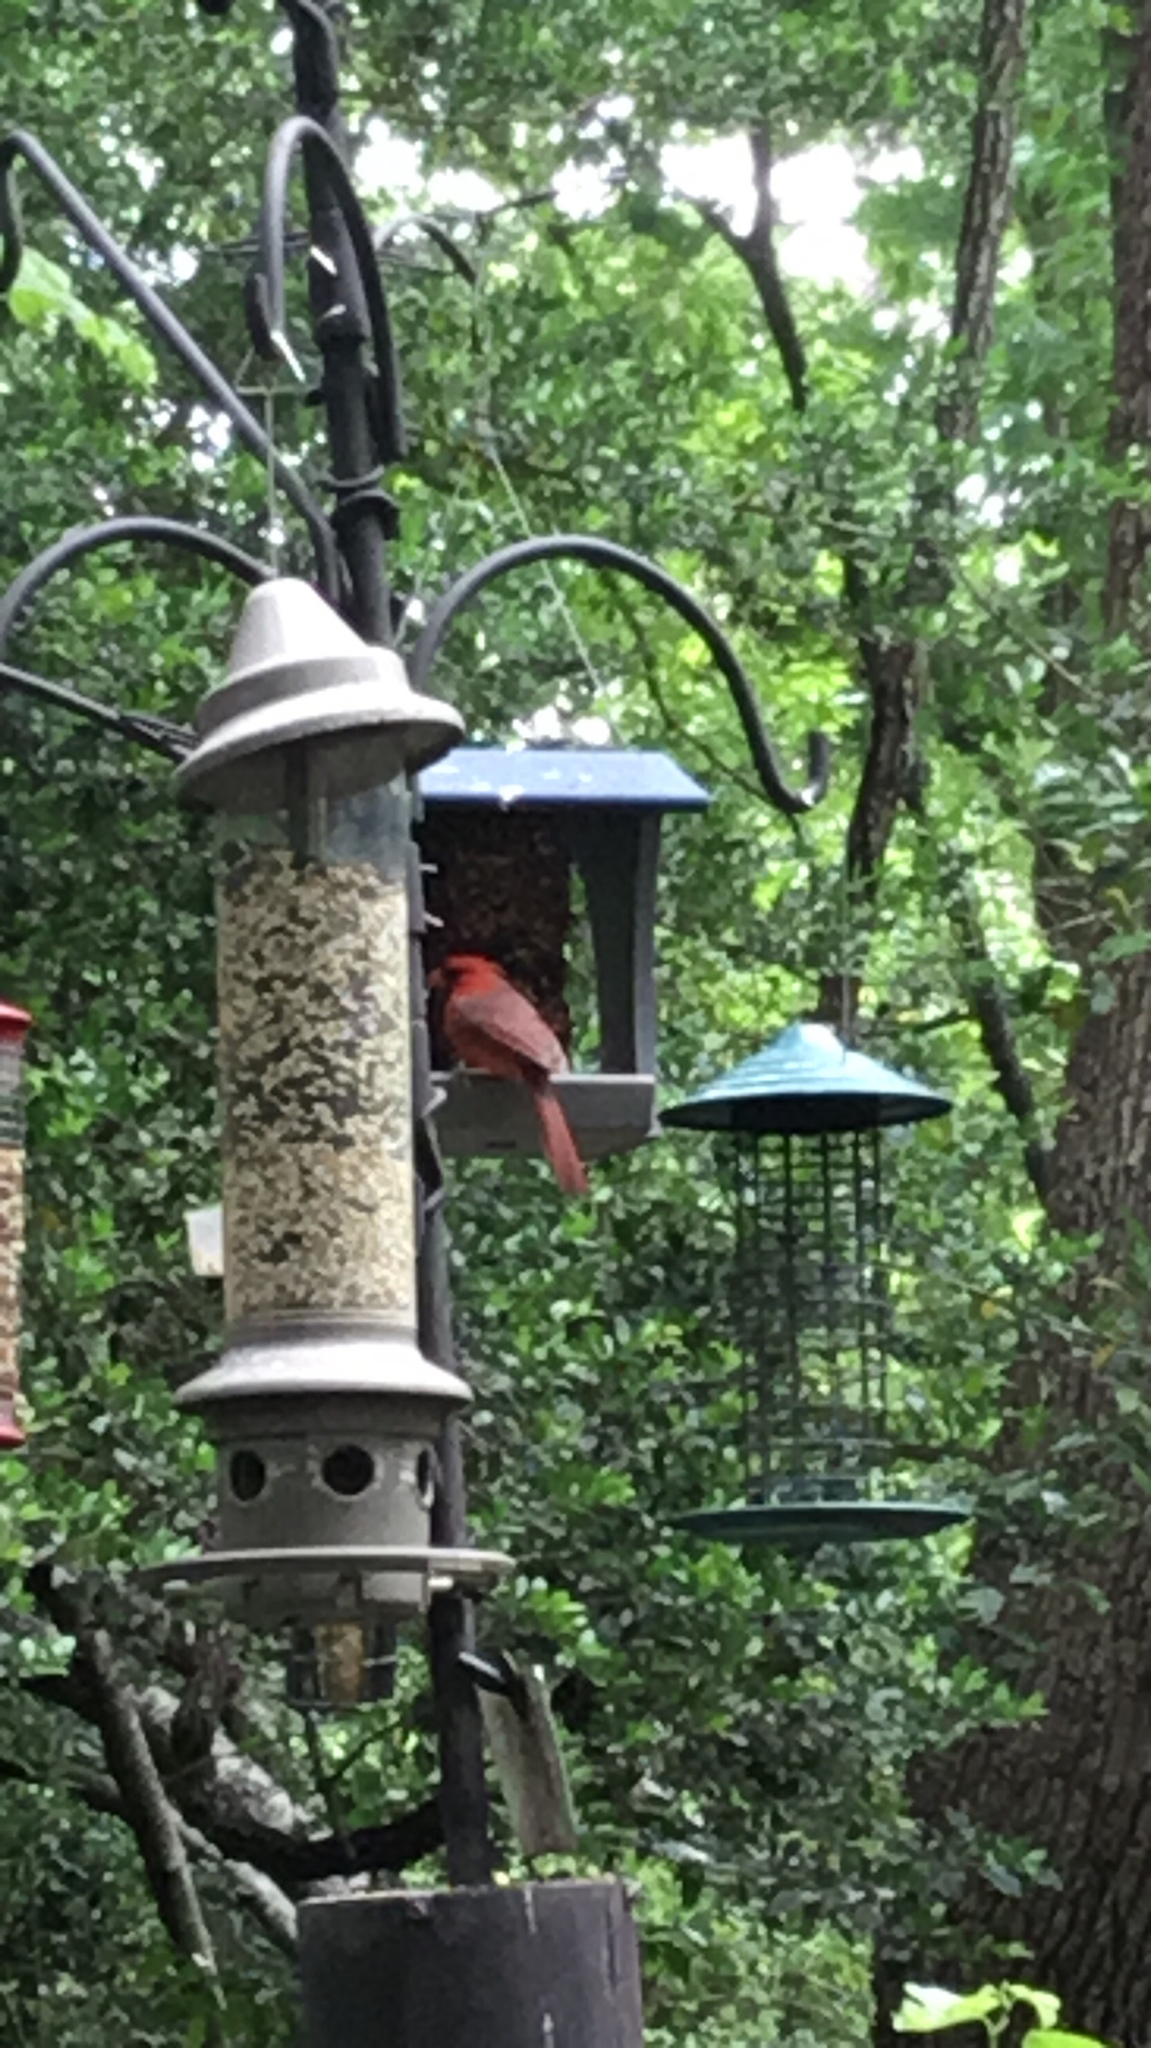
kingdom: Animalia
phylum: Chordata
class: Aves
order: Passeriformes
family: Cardinalidae
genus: Cardinalis
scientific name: Cardinalis cardinalis
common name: Northern cardinal
